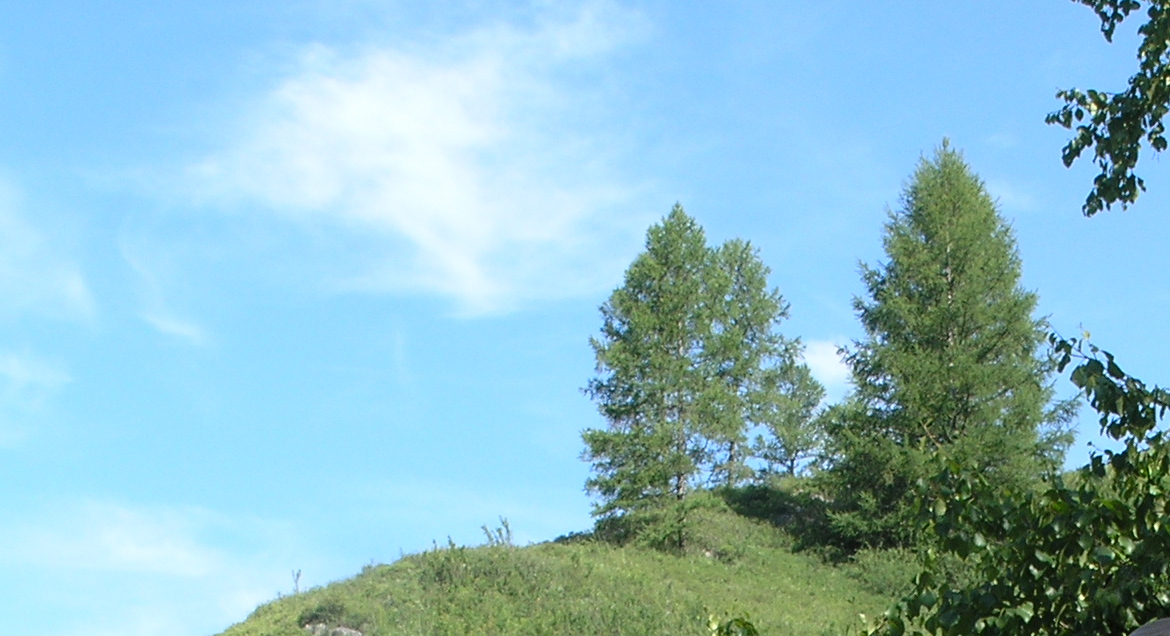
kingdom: Plantae
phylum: Tracheophyta
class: Pinopsida
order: Pinales
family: Pinaceae
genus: Larix
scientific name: Larix sibirica
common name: Siberian larch
